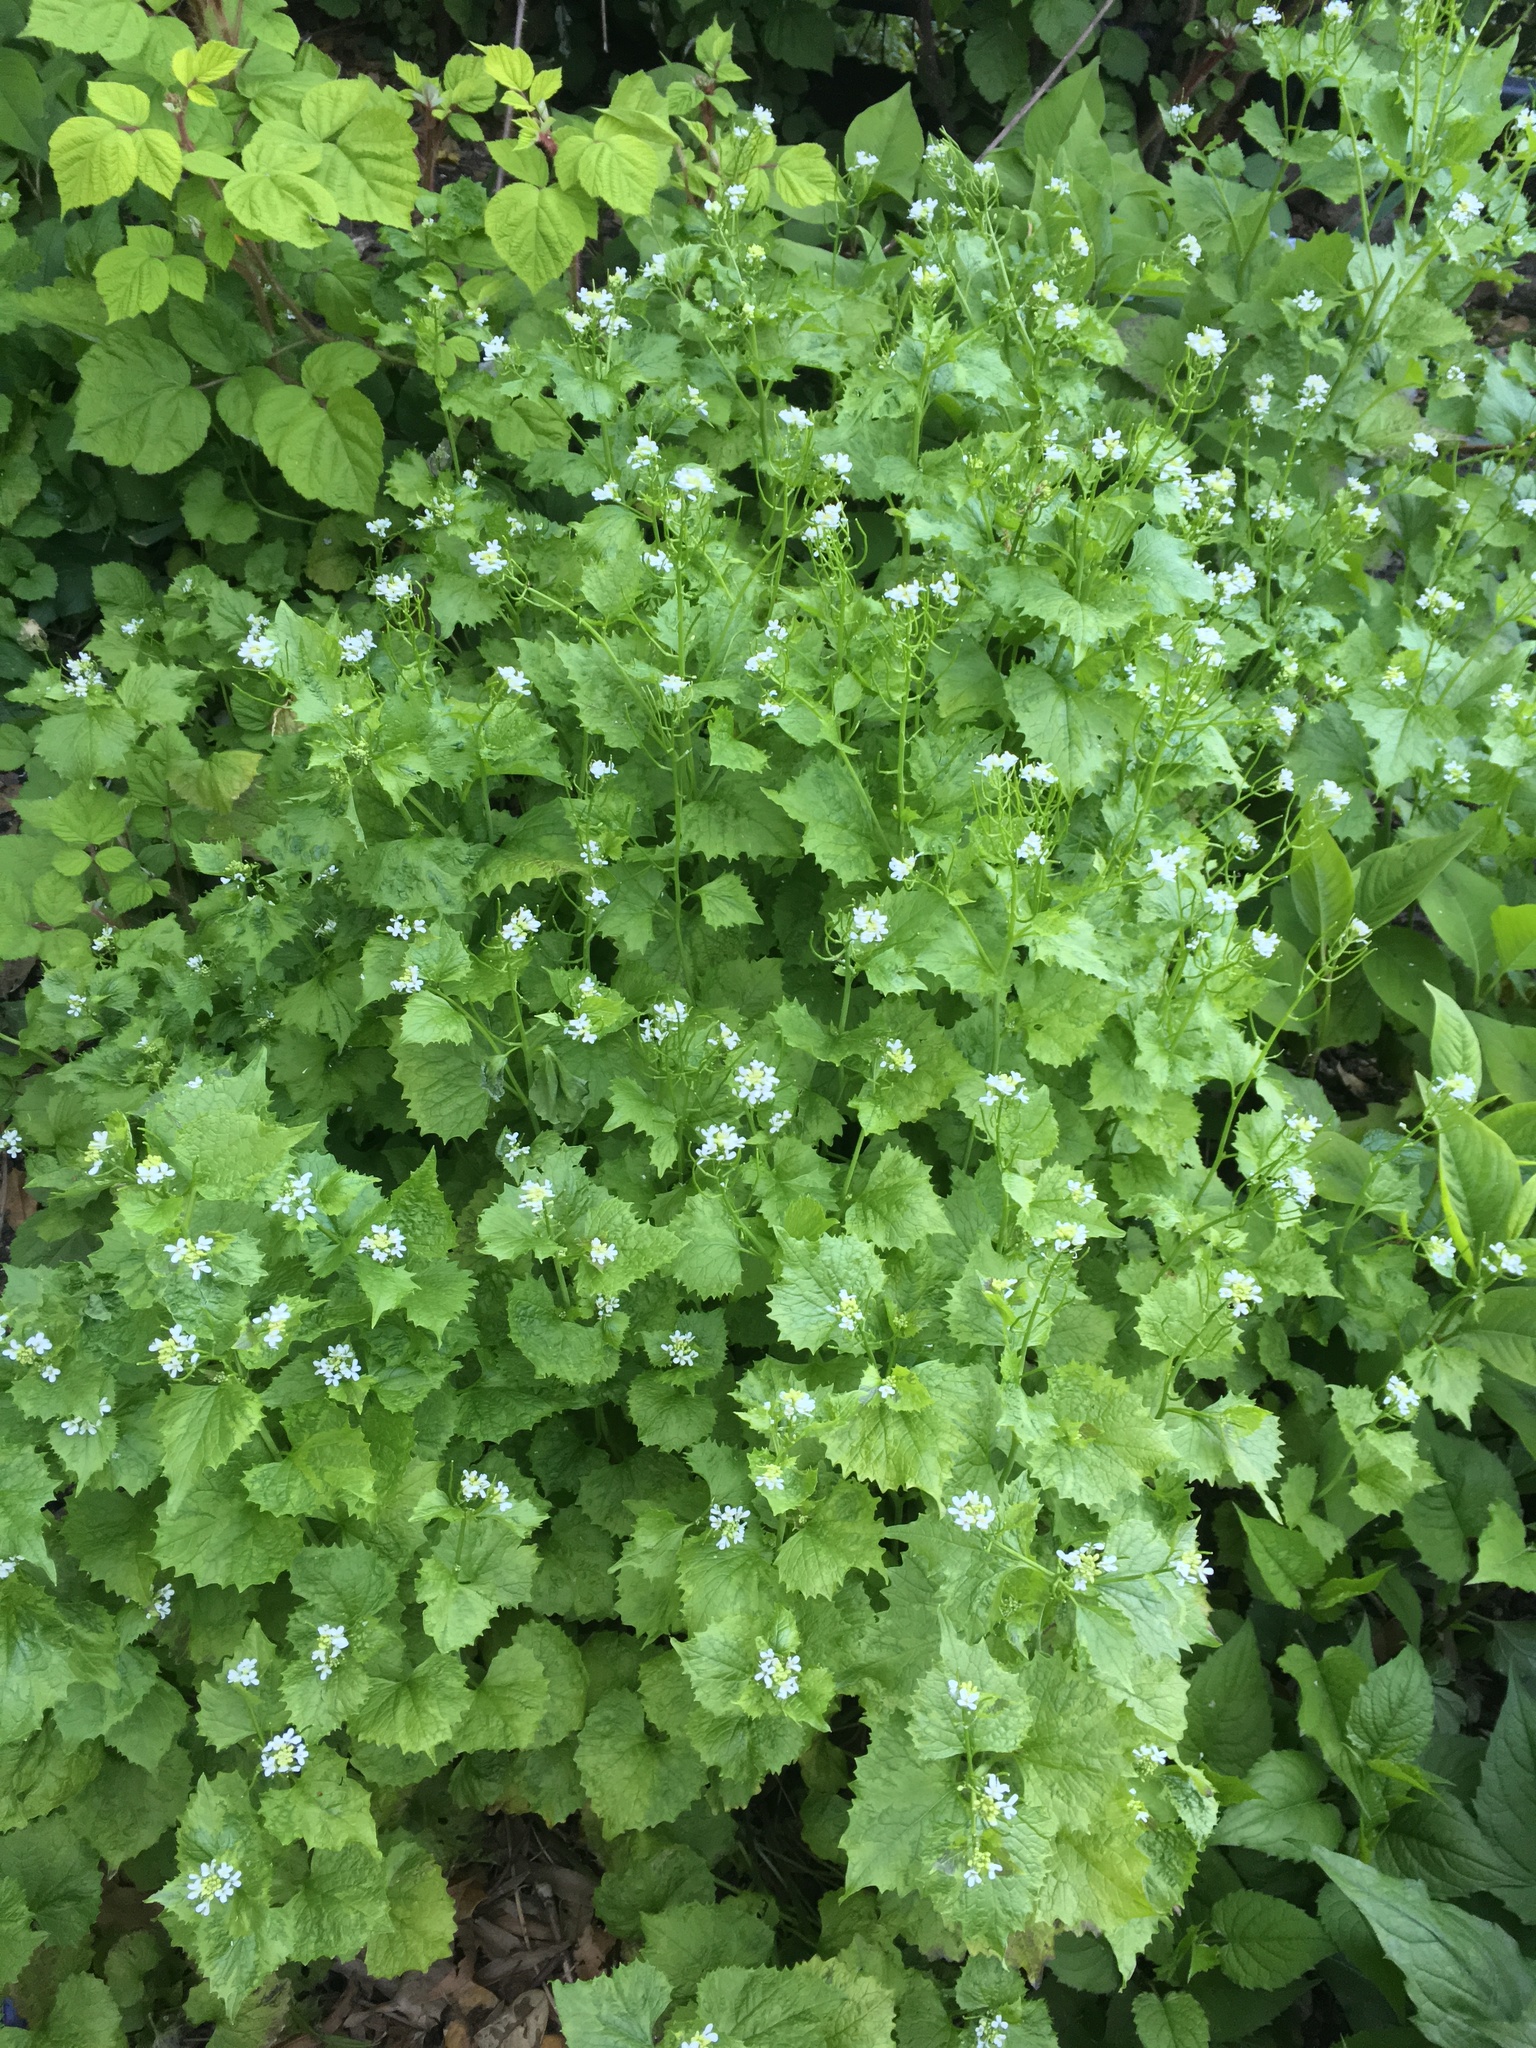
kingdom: Plantae
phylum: Tracheophyta
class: Magnoliopsida
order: Brassicales
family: Brassicaceae
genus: Alliaria
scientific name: Alliaria petiolata
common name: Garlic mustard
